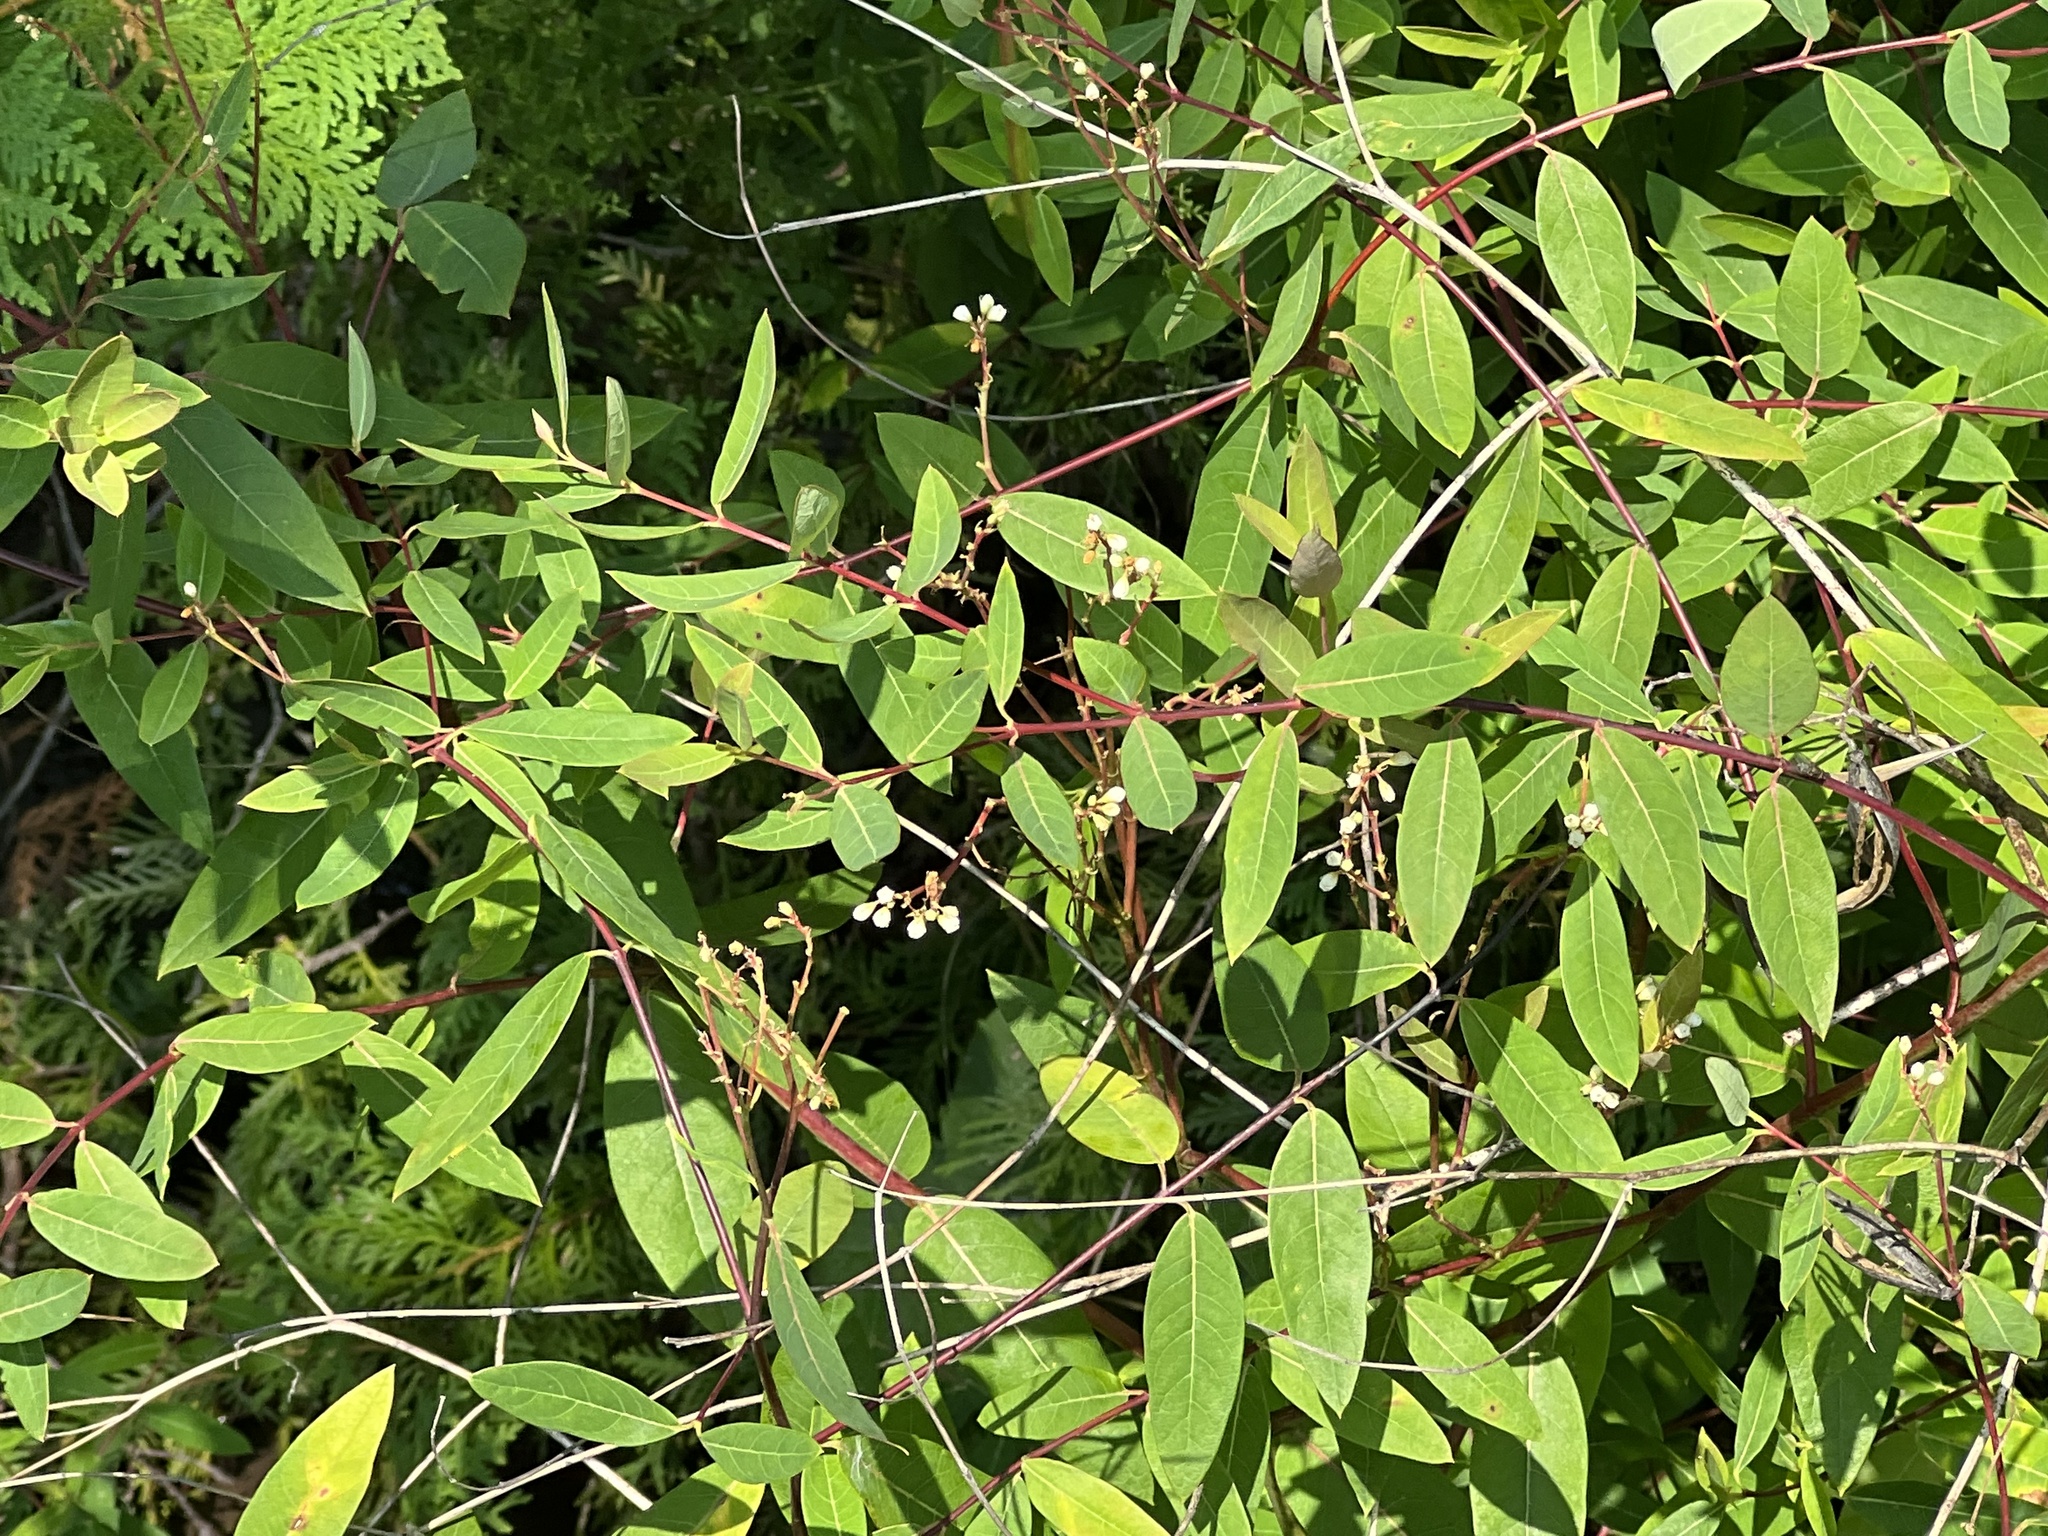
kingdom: Plantae
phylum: Tracheophyta
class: Magnoliopsida
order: Gentianales
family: Apocynaceae
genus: Apocynum
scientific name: Apocynum cannabinum
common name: Hemp dogbane
